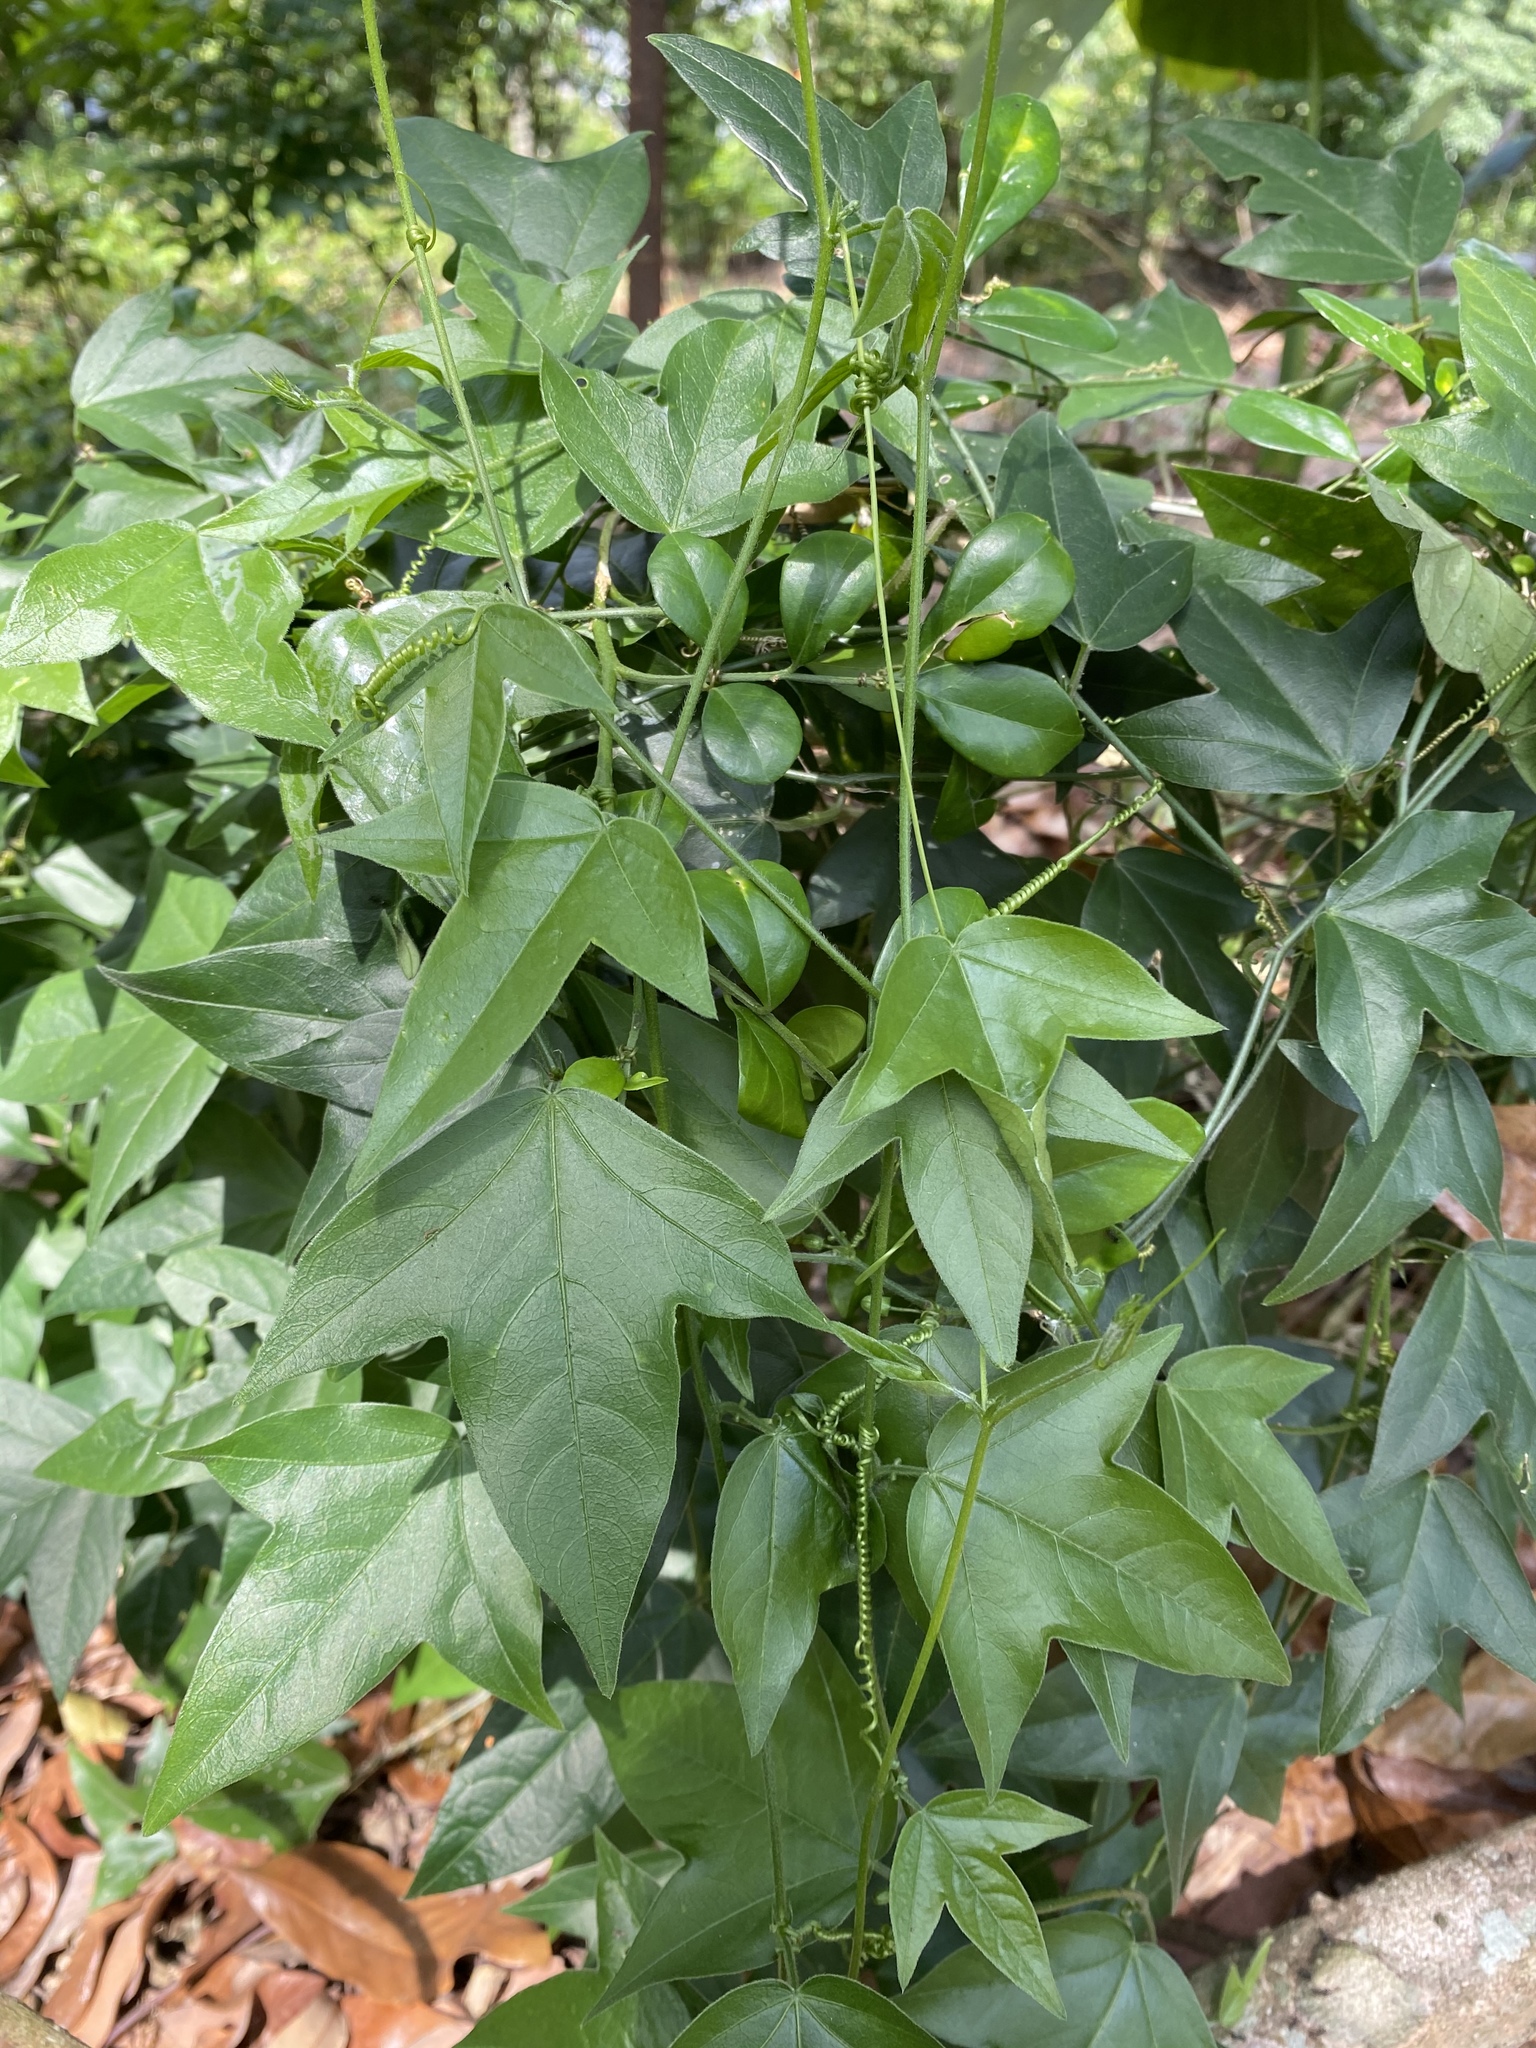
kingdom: Plantae
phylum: Tracheophyta
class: Magnoliopsida
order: Malpighiales
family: Passifloraceae
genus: Passiflora
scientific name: Passiflora suberosa
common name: Wild passionfruit
